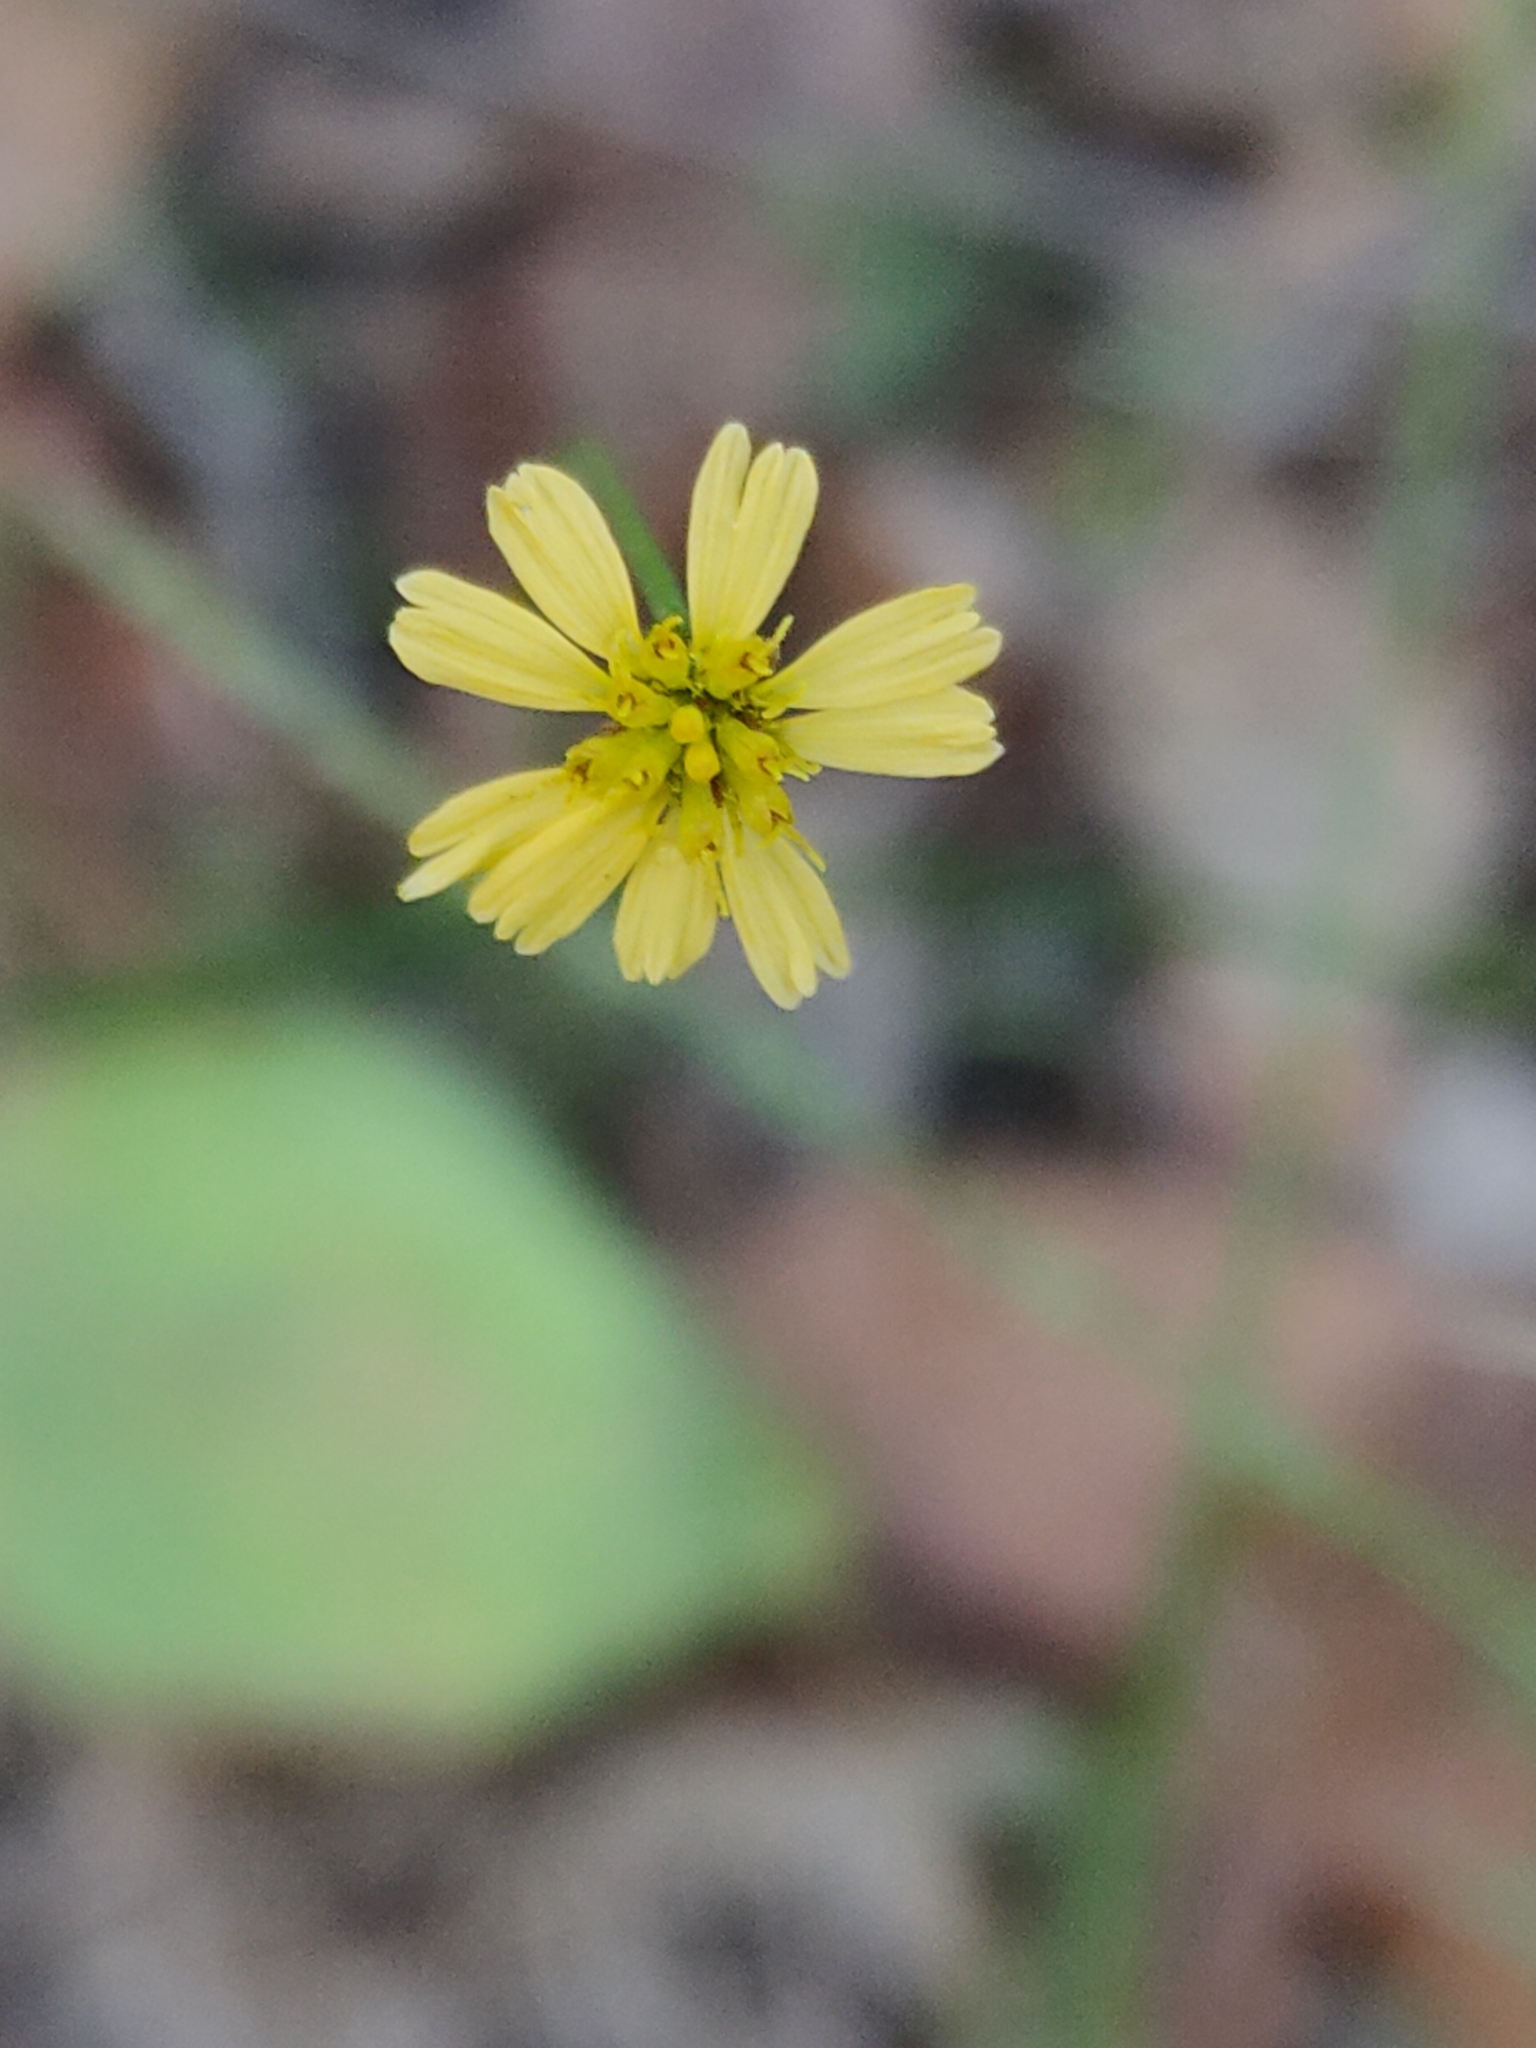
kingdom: Plantae
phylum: Tracheophyta
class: Magnoliopsida
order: Asterales
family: Asteraceae
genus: Glossocardia
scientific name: Glossocardia bidens
